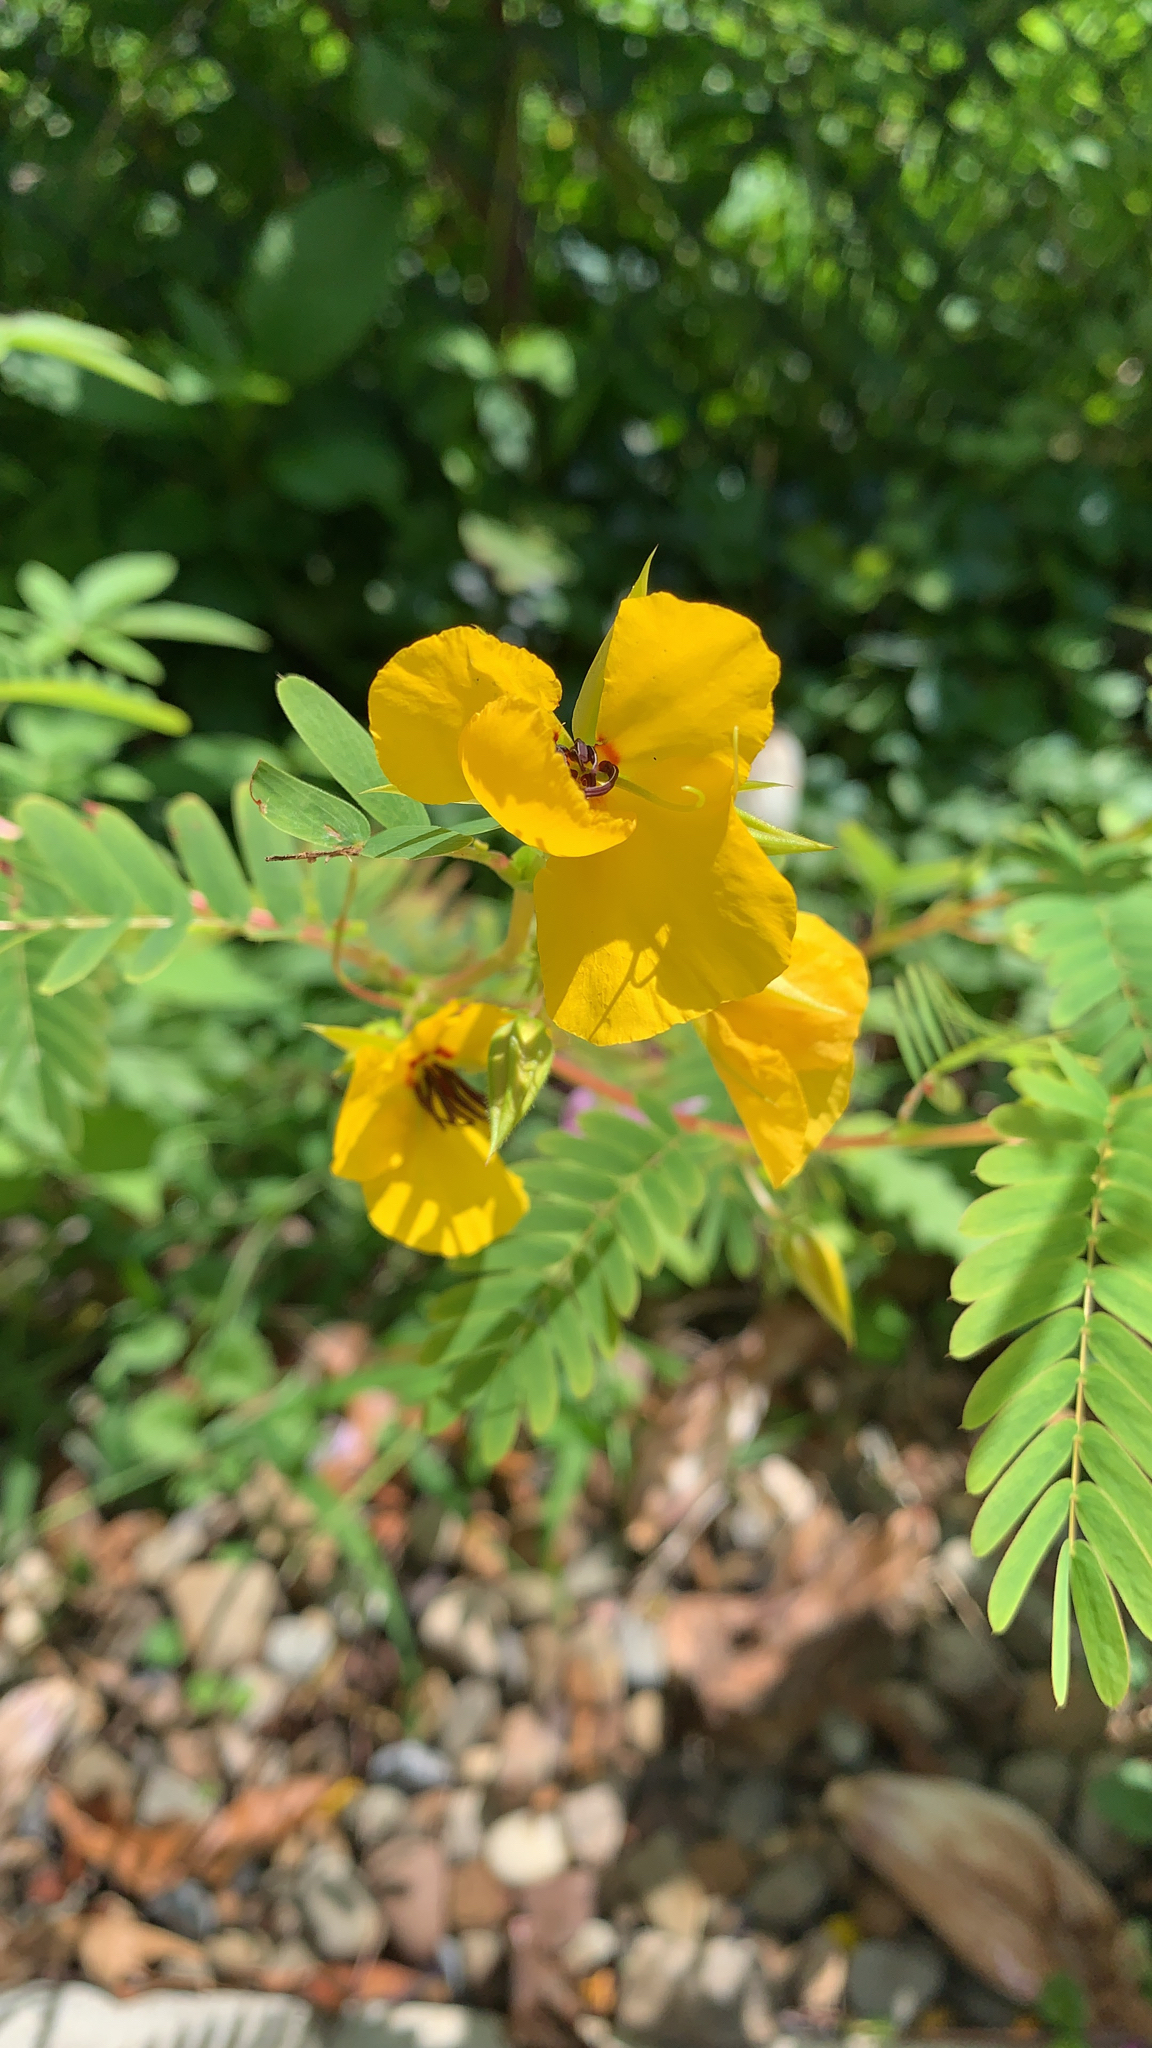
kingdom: Plantae
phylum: Tracheophyta
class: Magnoliopsida
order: Fabales
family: Fabaceae
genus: Chamaecrista
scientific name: Chamaecrista fasciculata
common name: Golden cassia
